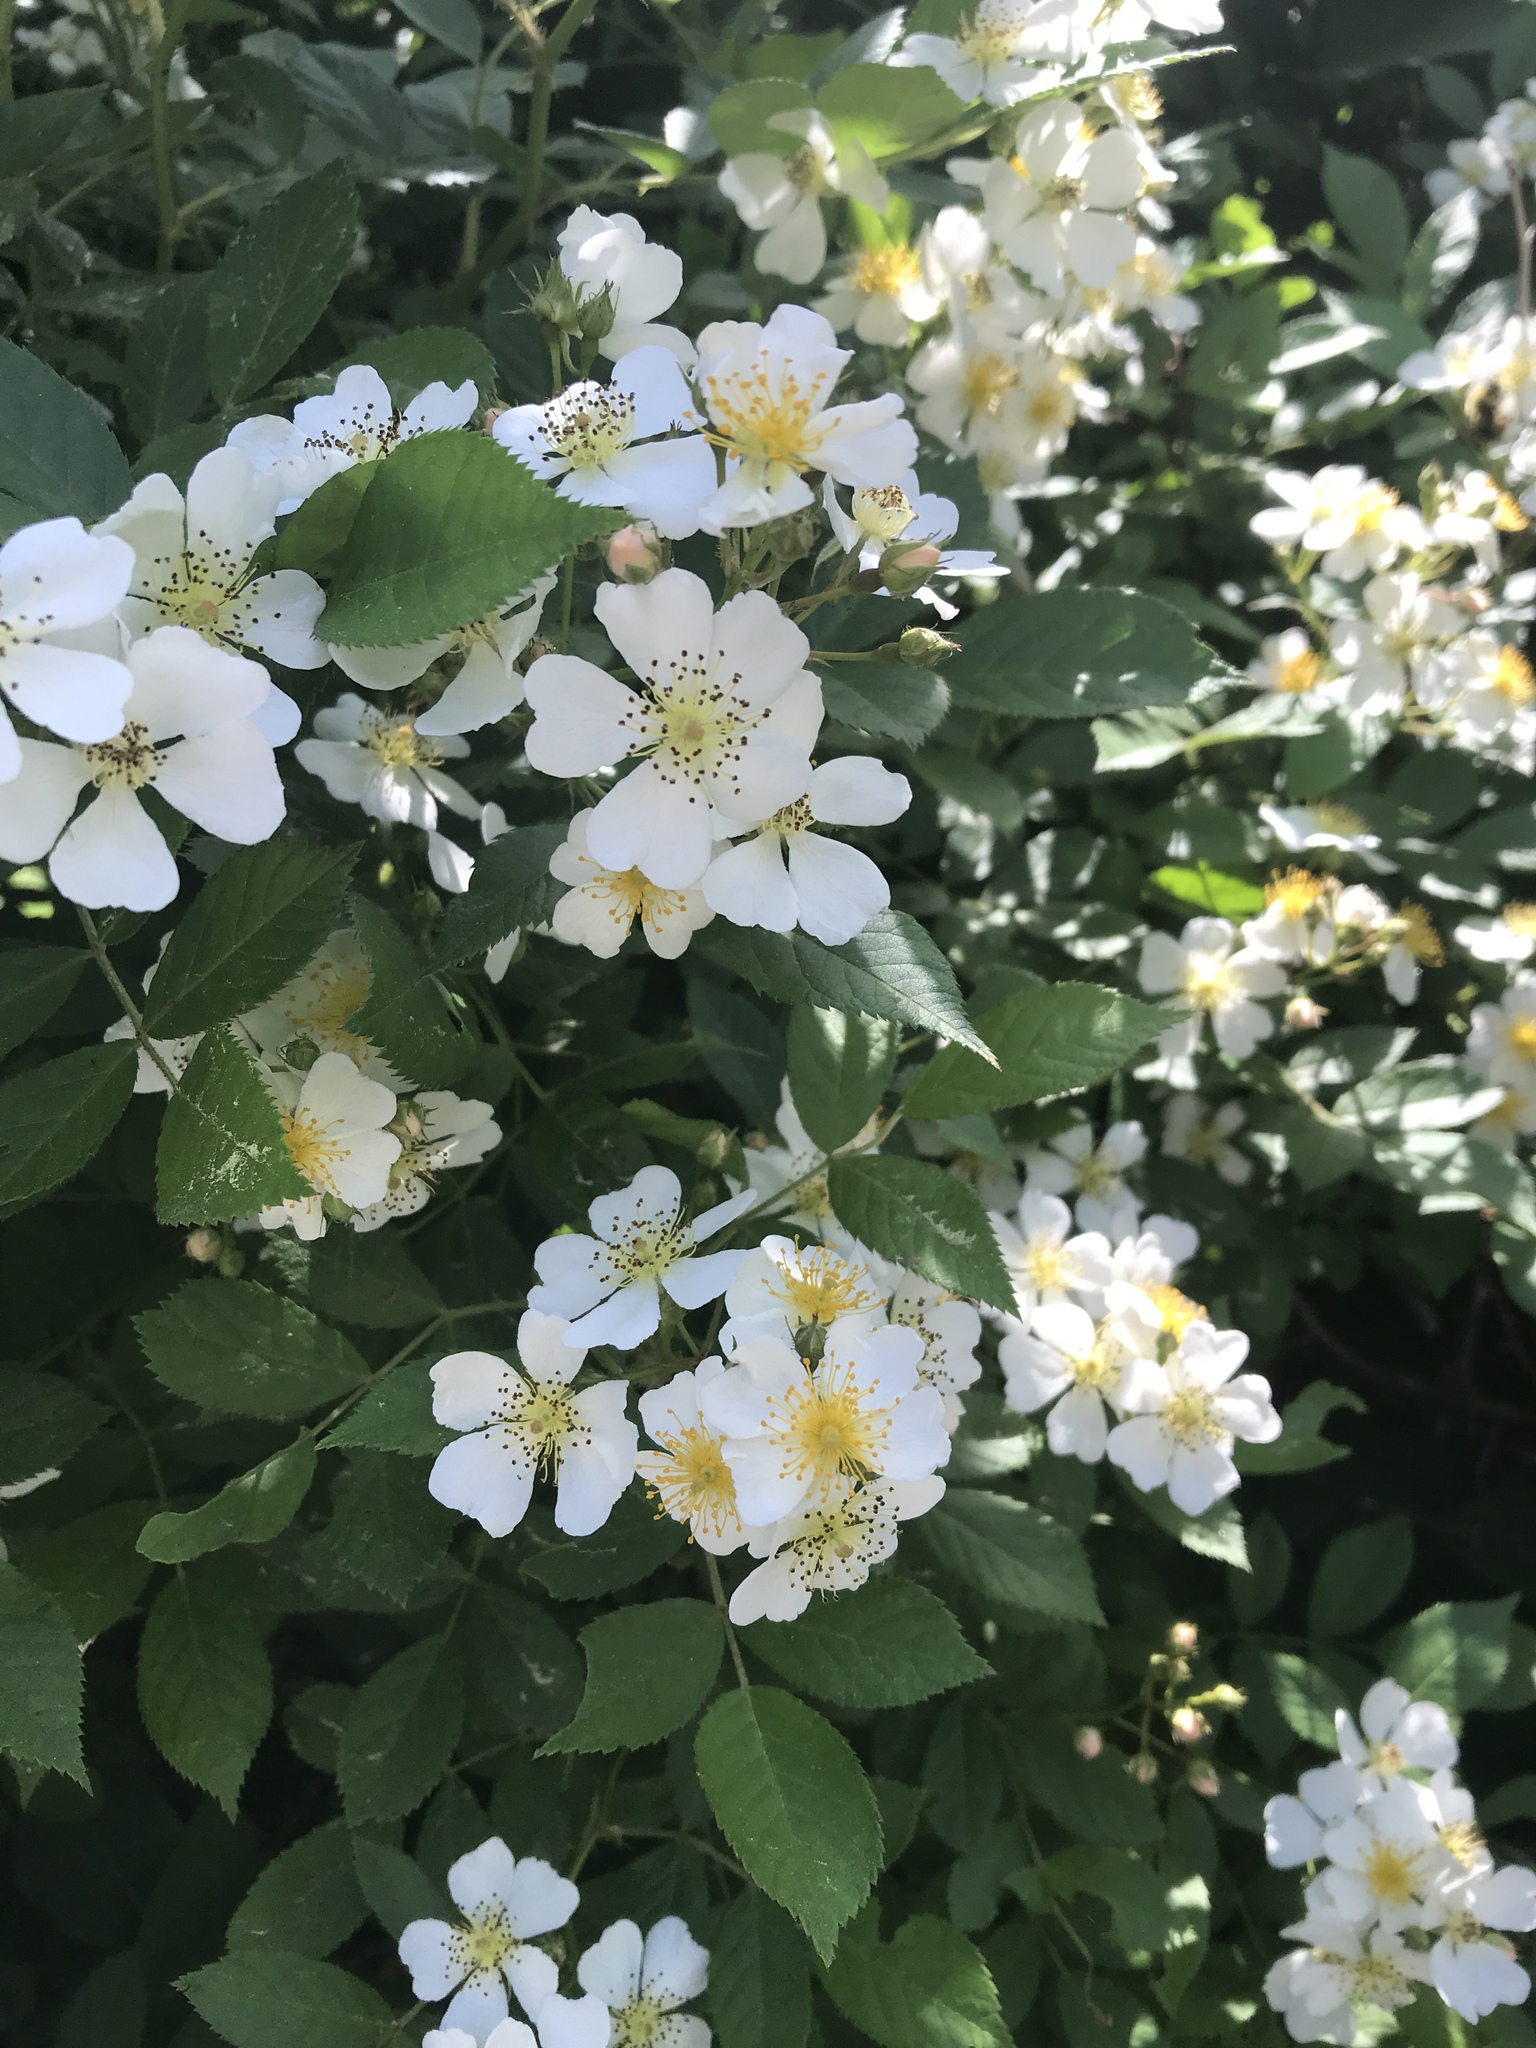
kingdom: Plantae
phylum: Tracheophyta
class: Magnoliopsida
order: Rosales
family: Rosaceae
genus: Rosa
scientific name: Rosa multiflora
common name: Multiflora rose
